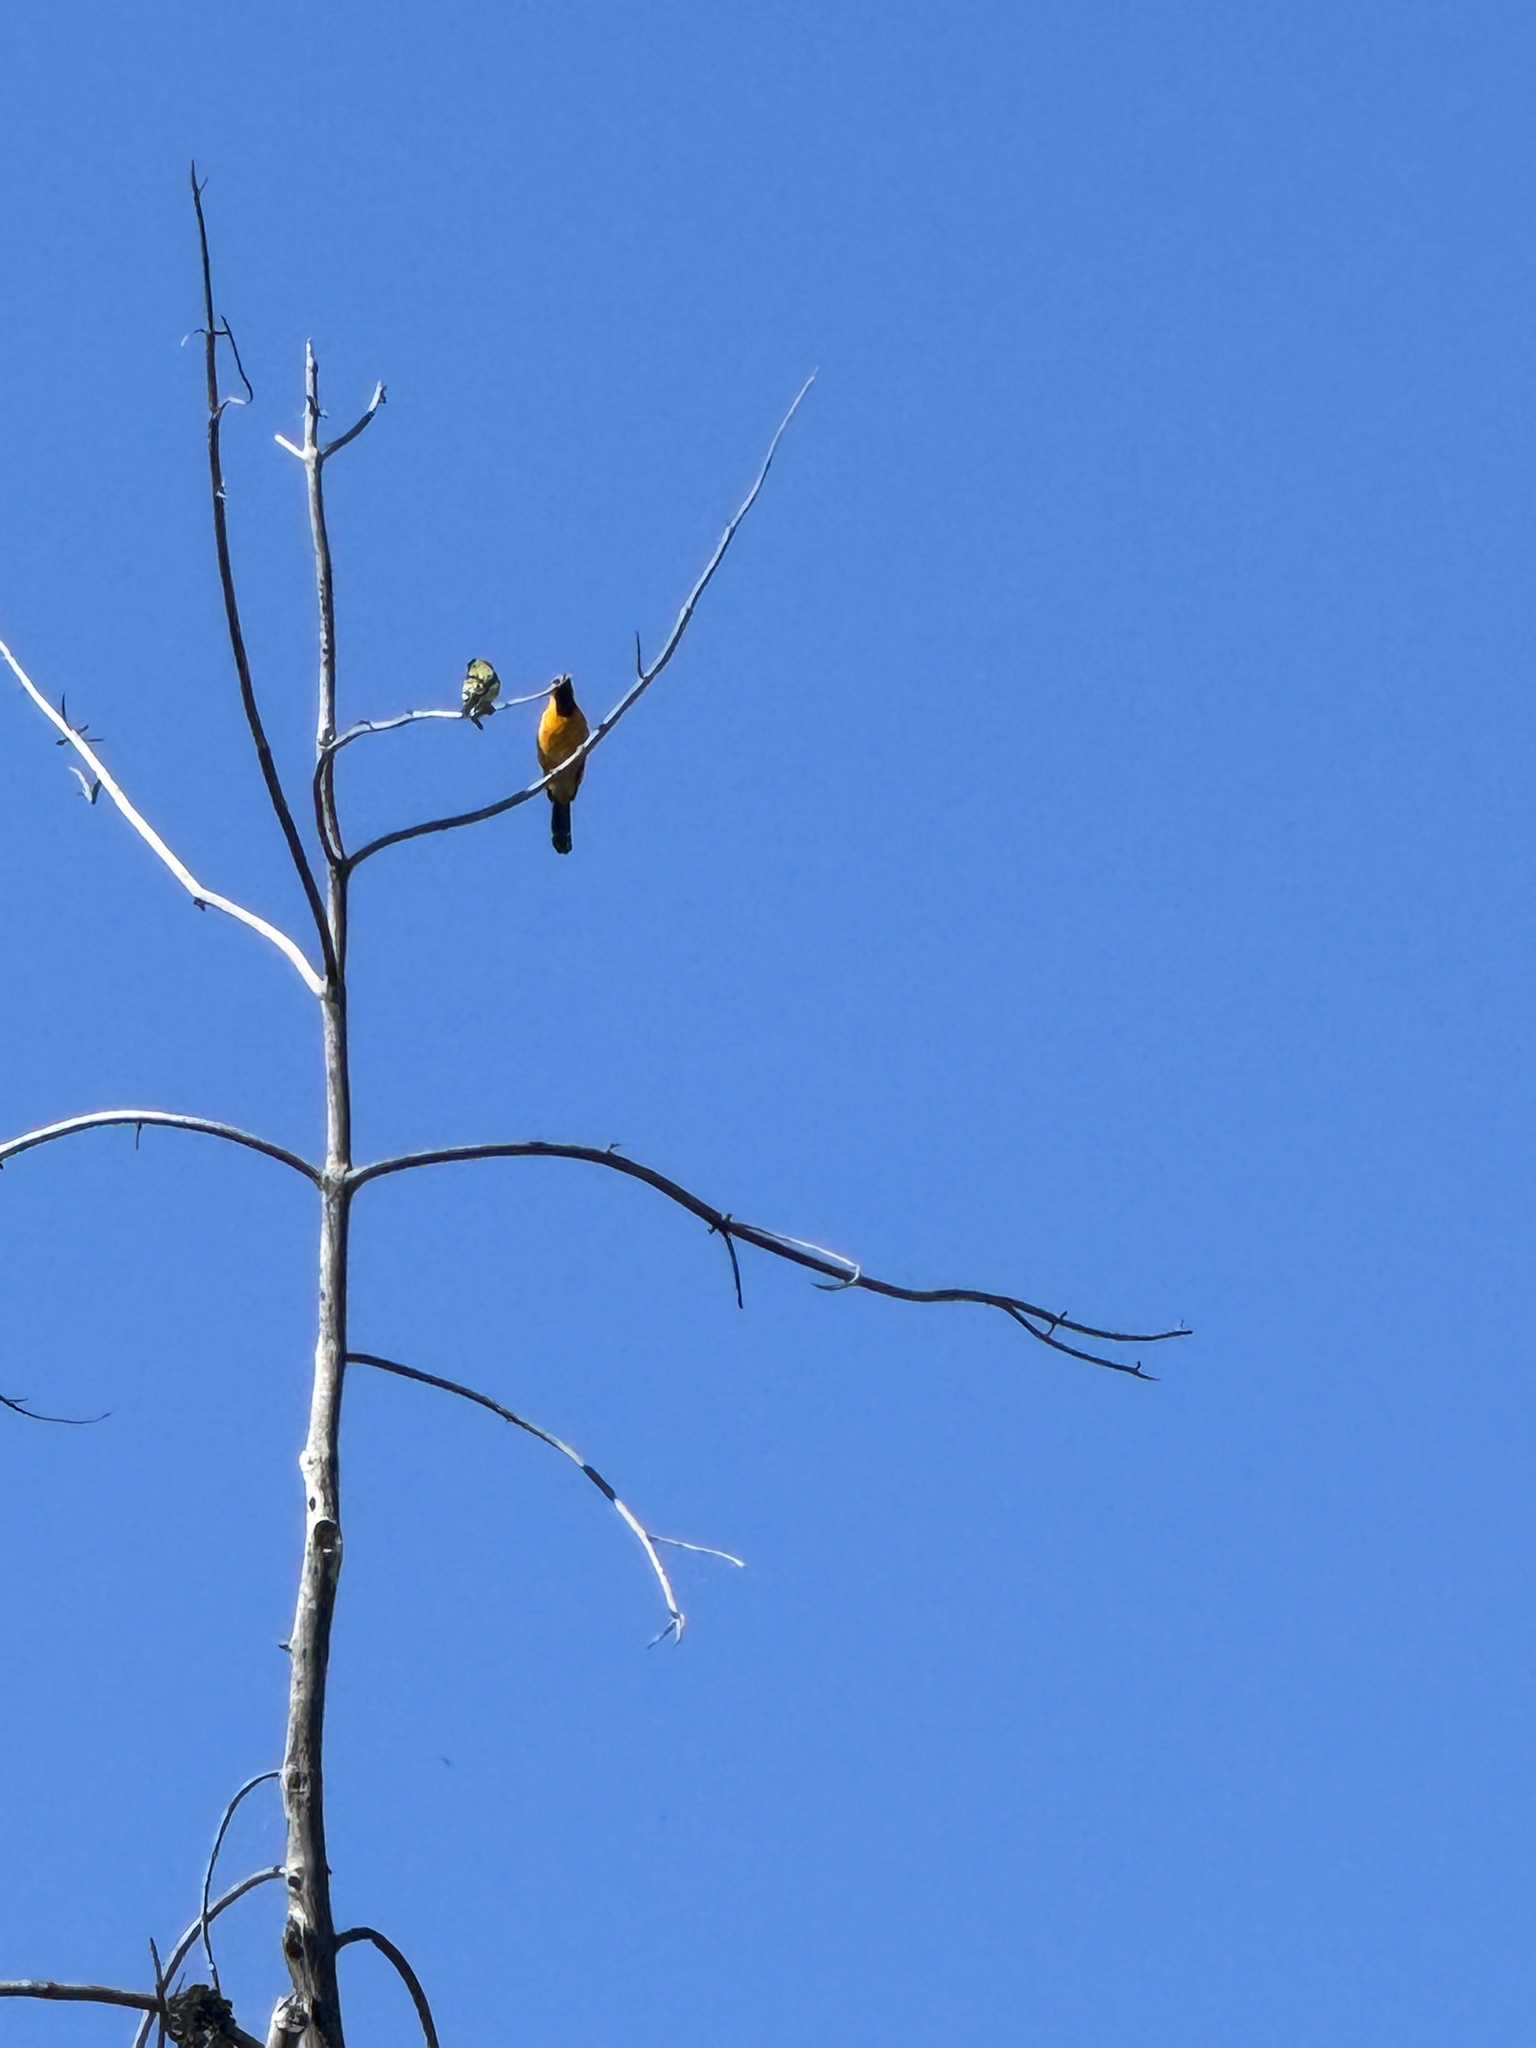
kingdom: Animalia
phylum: Chordata
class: Aves
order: Passeriformes
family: Icteridae
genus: Icterus
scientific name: Icterus cucullatus
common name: Hooded oriole
